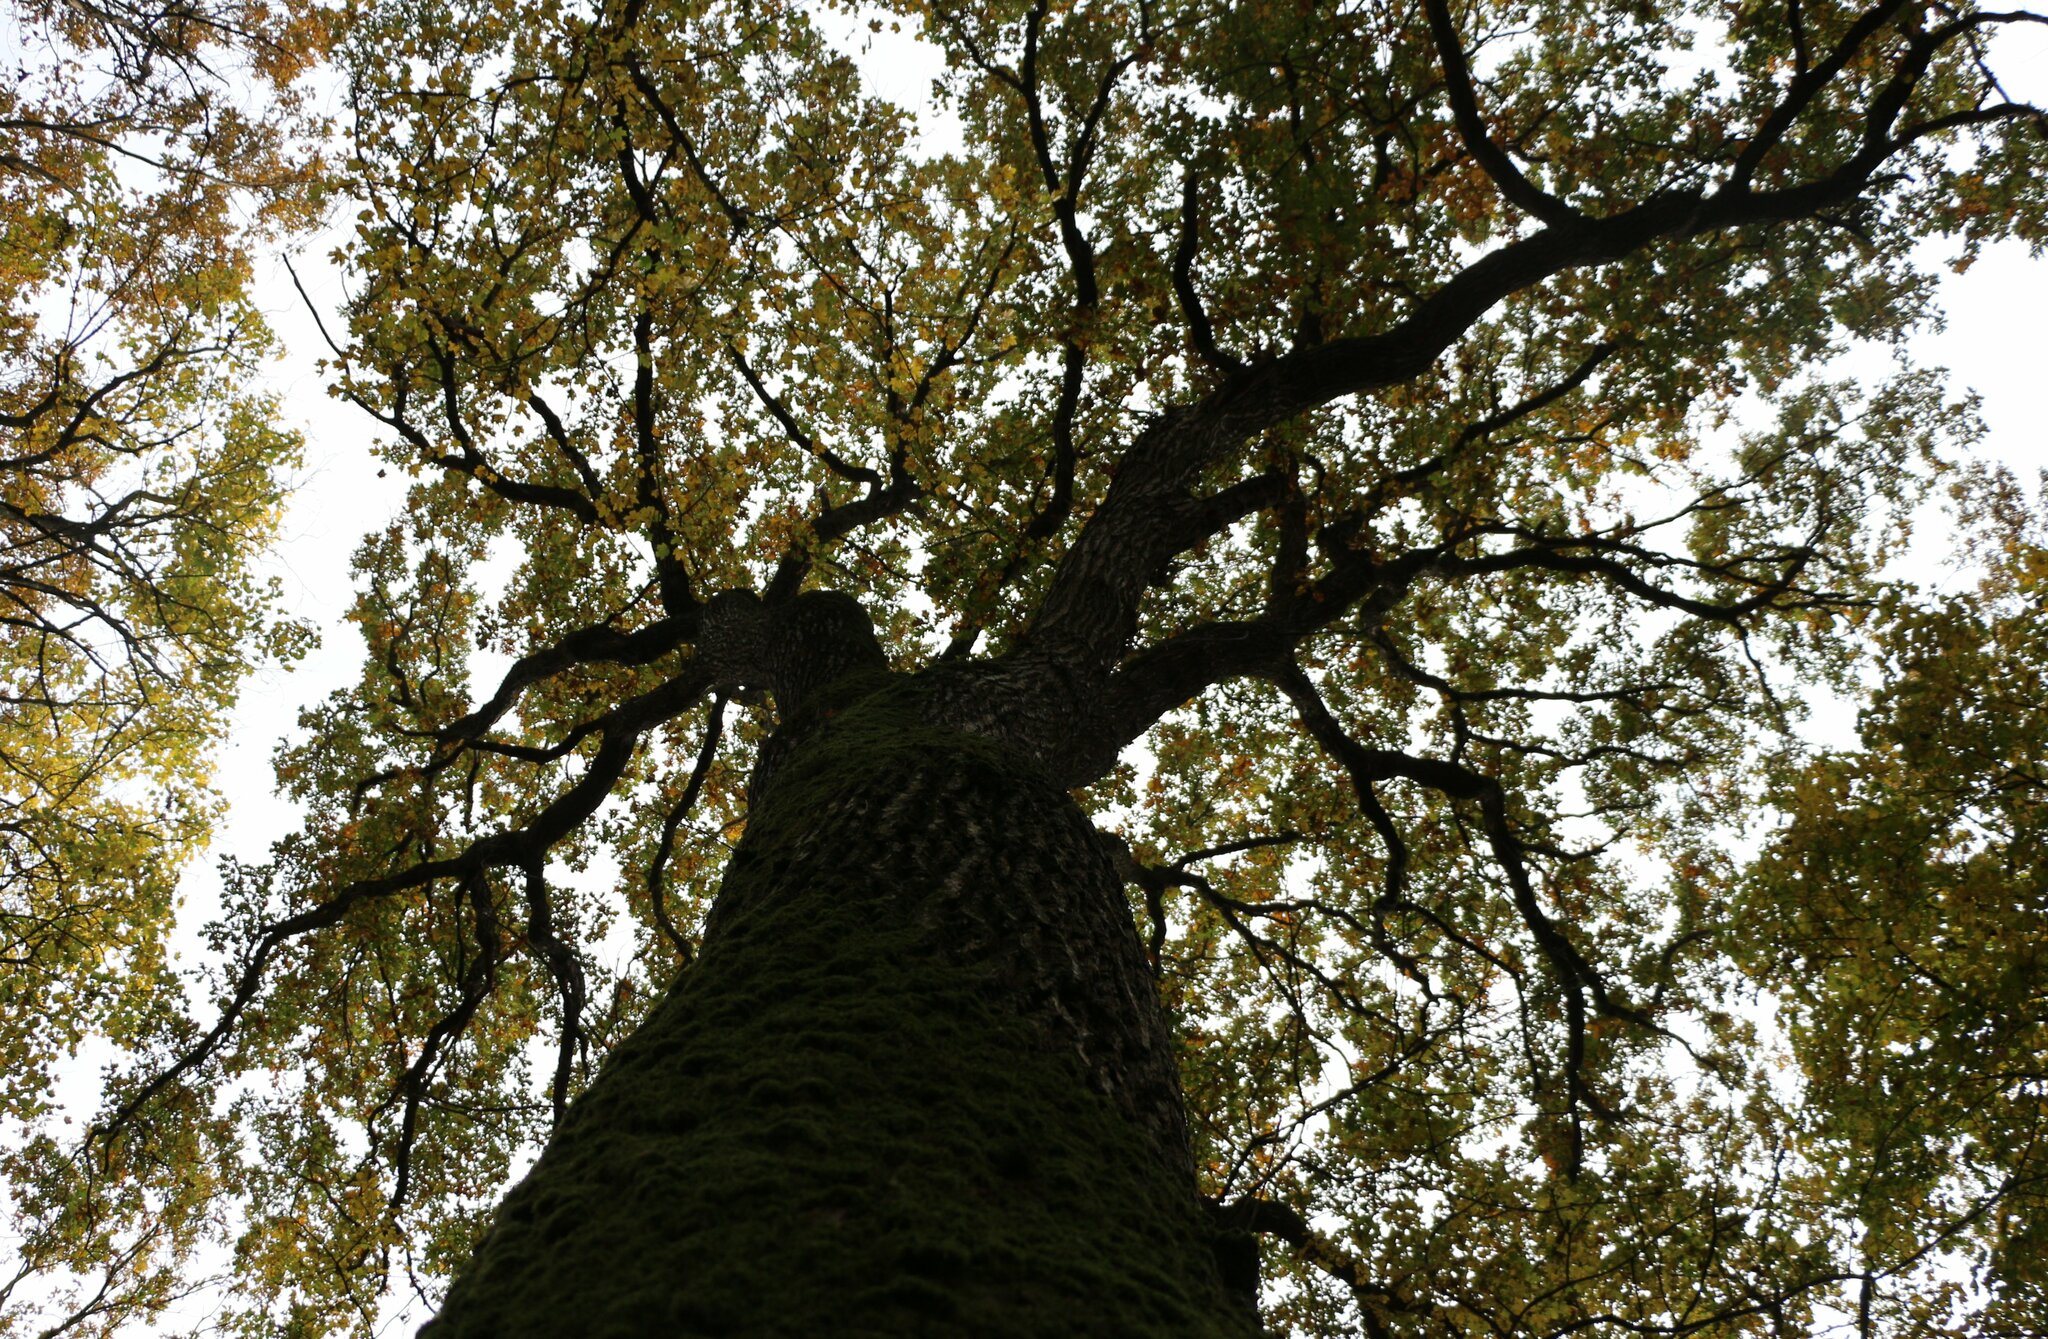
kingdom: Plantae
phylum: Tracheophyta
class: Magnoliopsida
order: Fagales
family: Fagaceae
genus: Quercus
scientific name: Quercus robur
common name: Pedunculate oak
